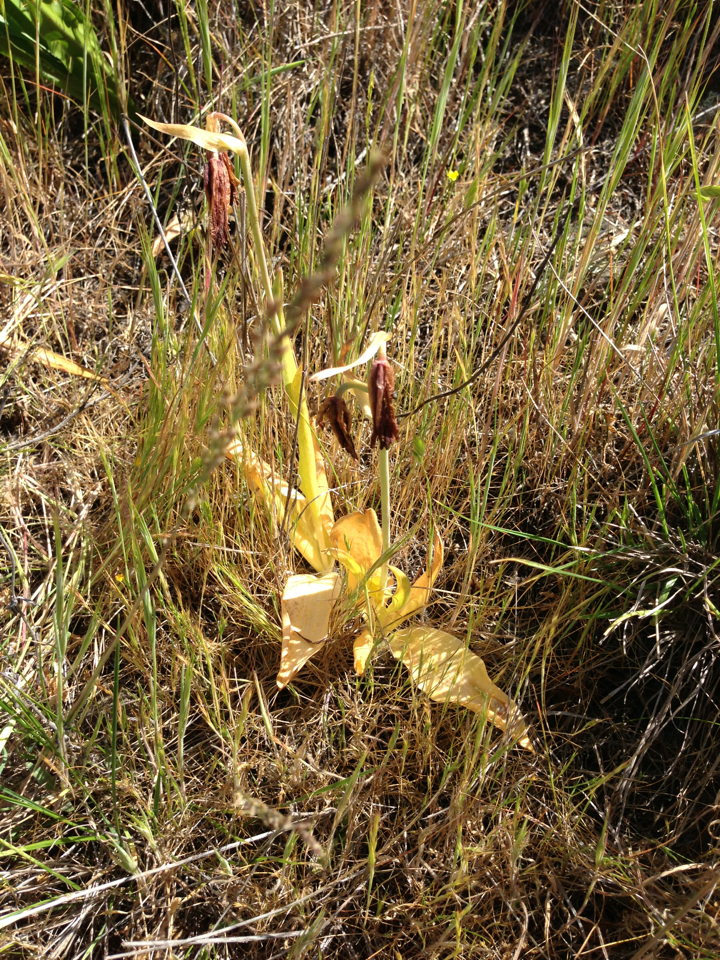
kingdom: Plantae
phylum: Tracheophyta
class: Liliopsida
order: Liliales
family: Liliaceae
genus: Fritillaria
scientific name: Fritillaria biflora
